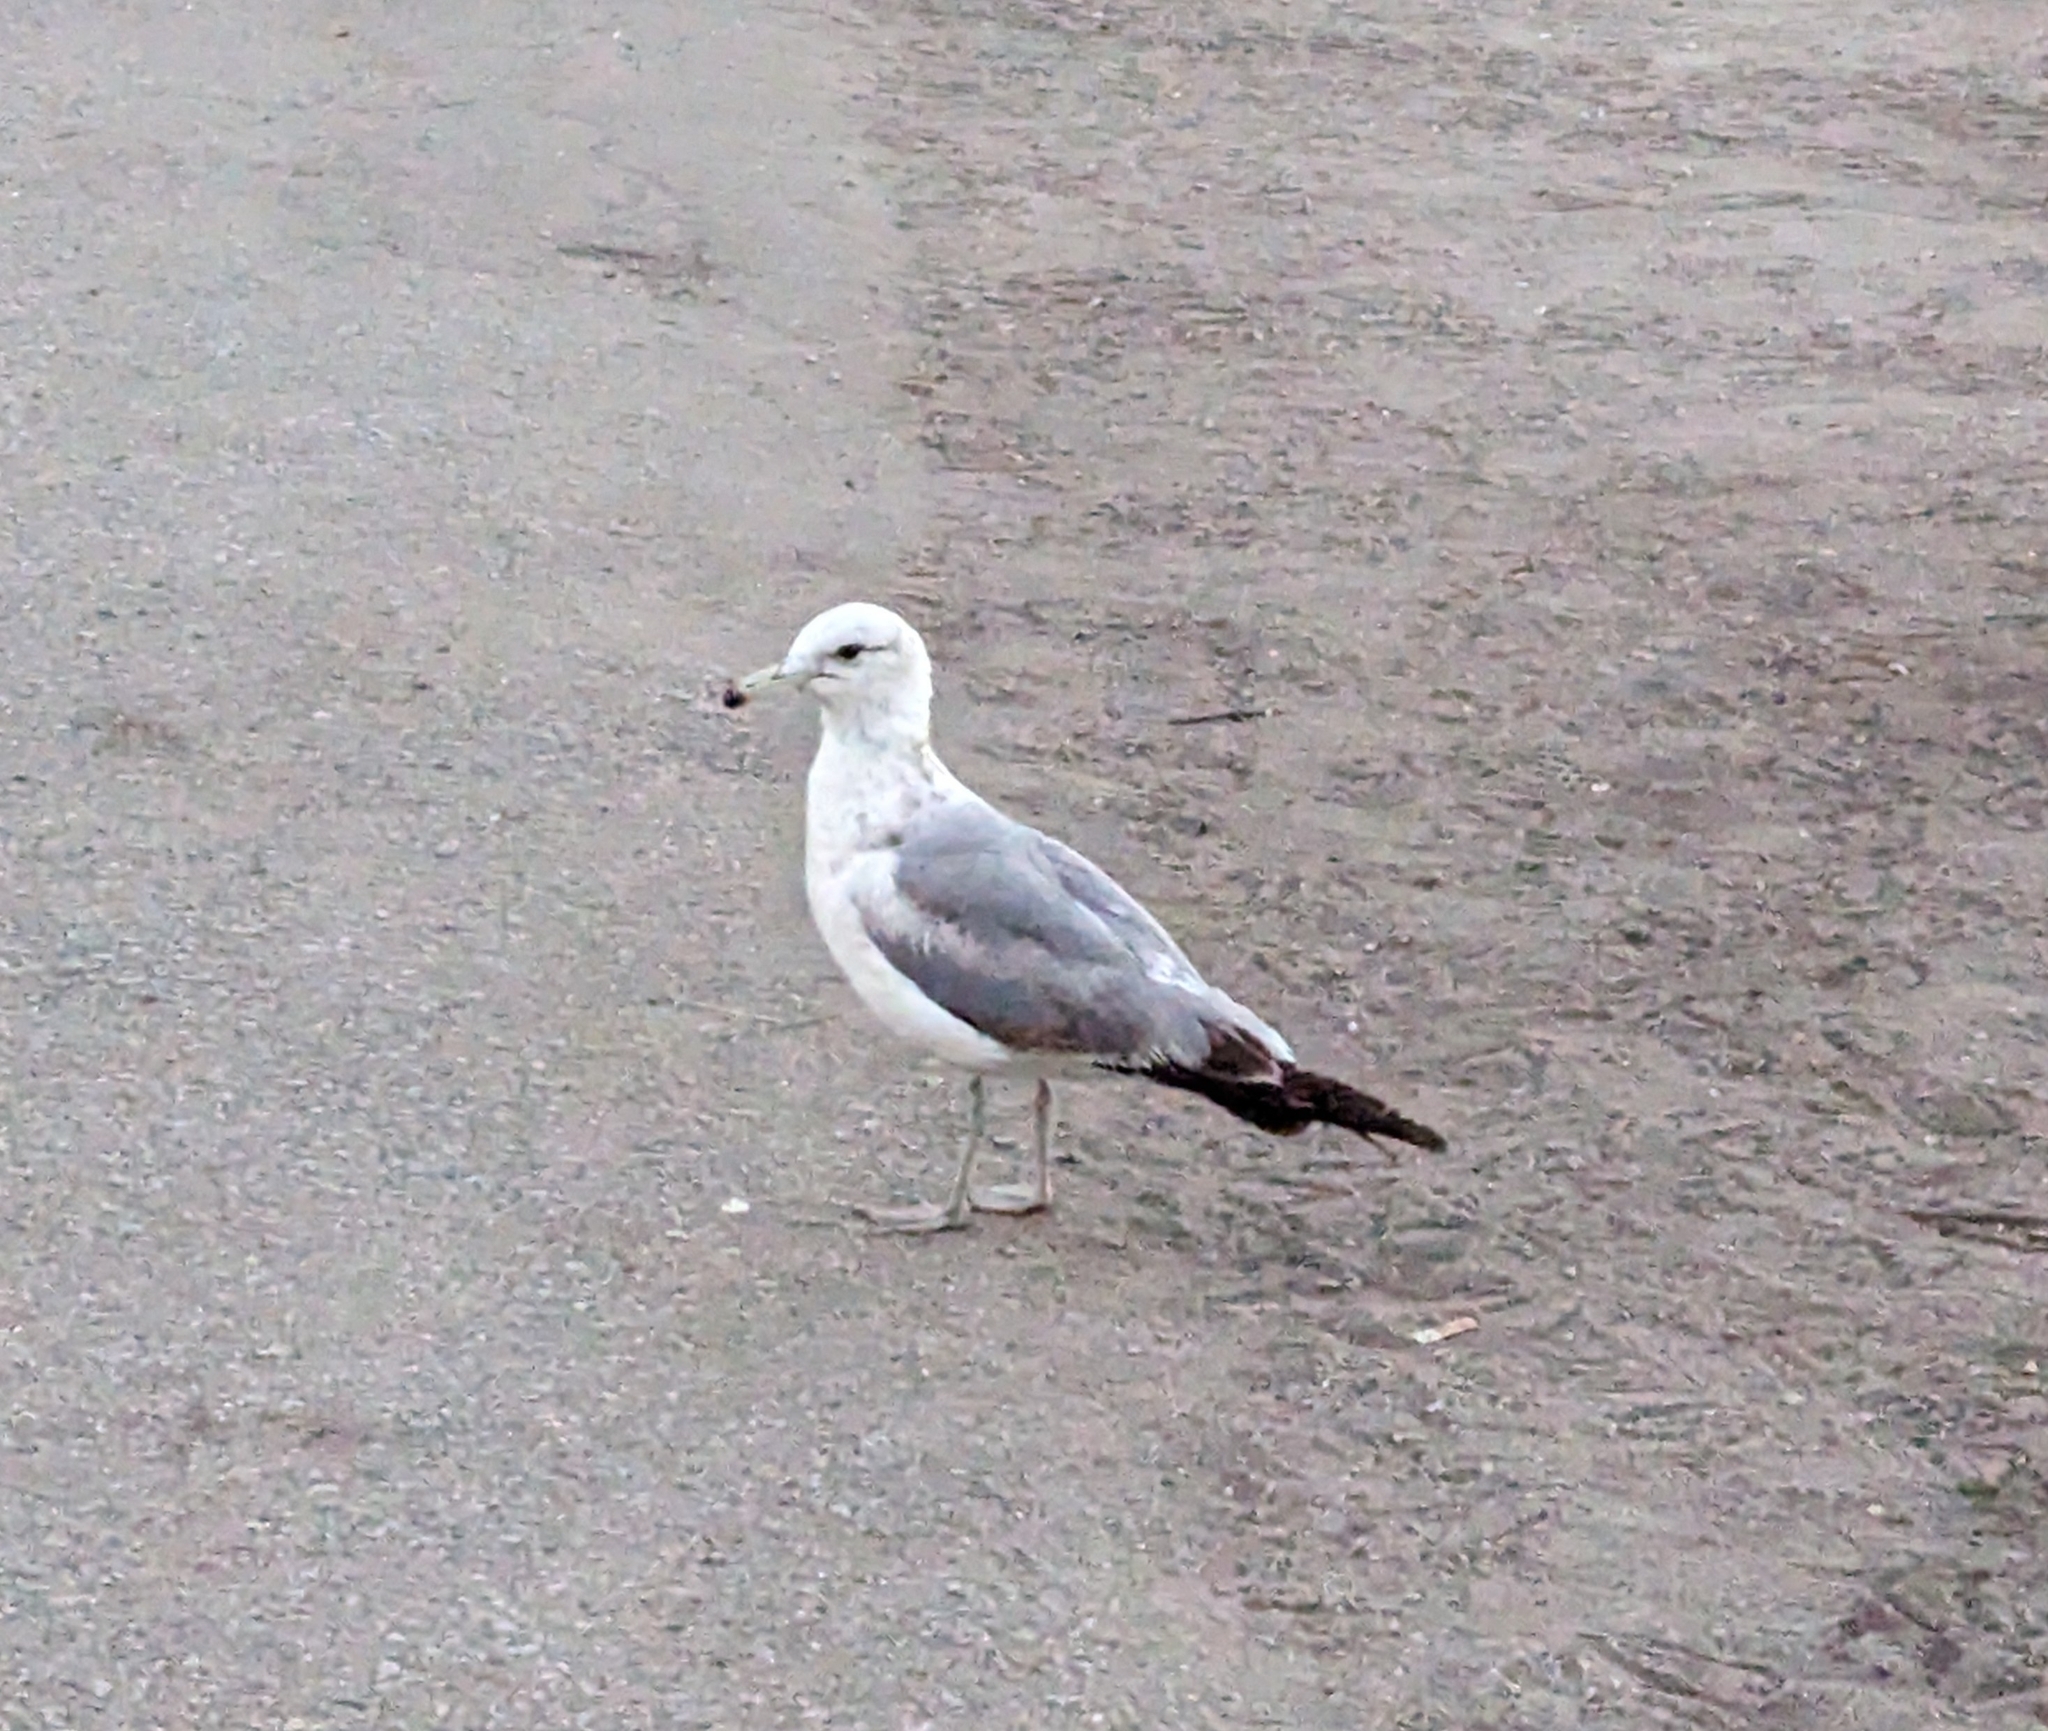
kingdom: Animalia
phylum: Chordata
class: Aves
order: Charadriiformes
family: Laridae
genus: Larus
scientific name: Larus delawarensis
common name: Ring-billed gull
